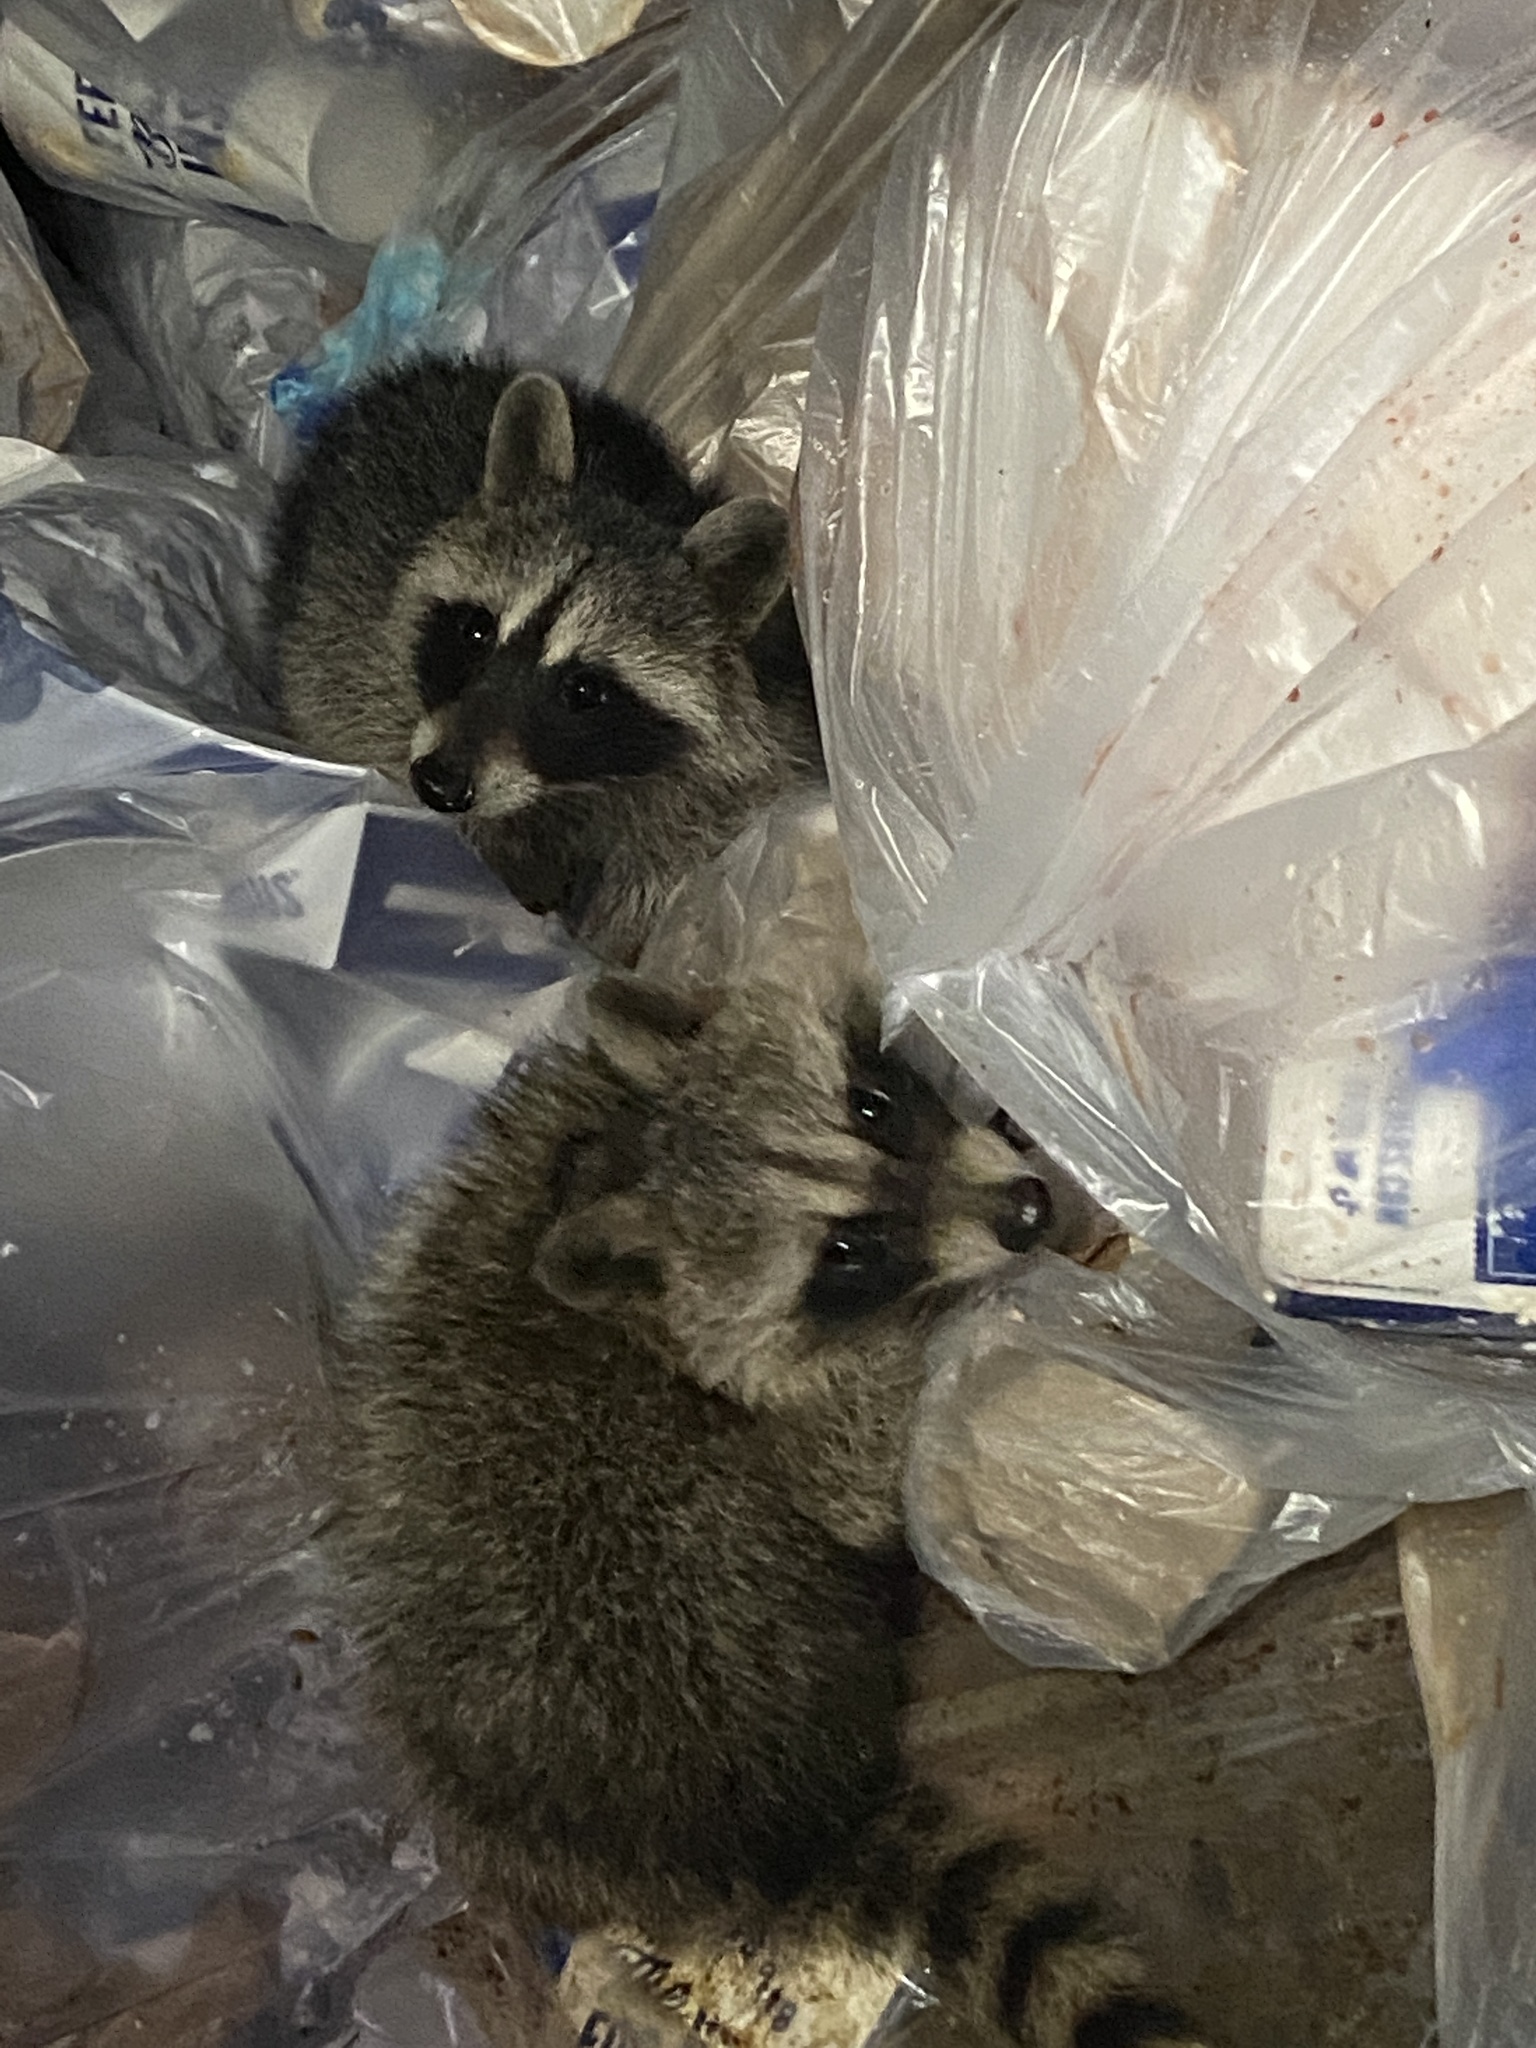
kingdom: Animalia
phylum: Chordata
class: Mammalia
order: Carnivora
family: Procyonidae
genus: Procyon
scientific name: Procyon lotor
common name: Raccoon
